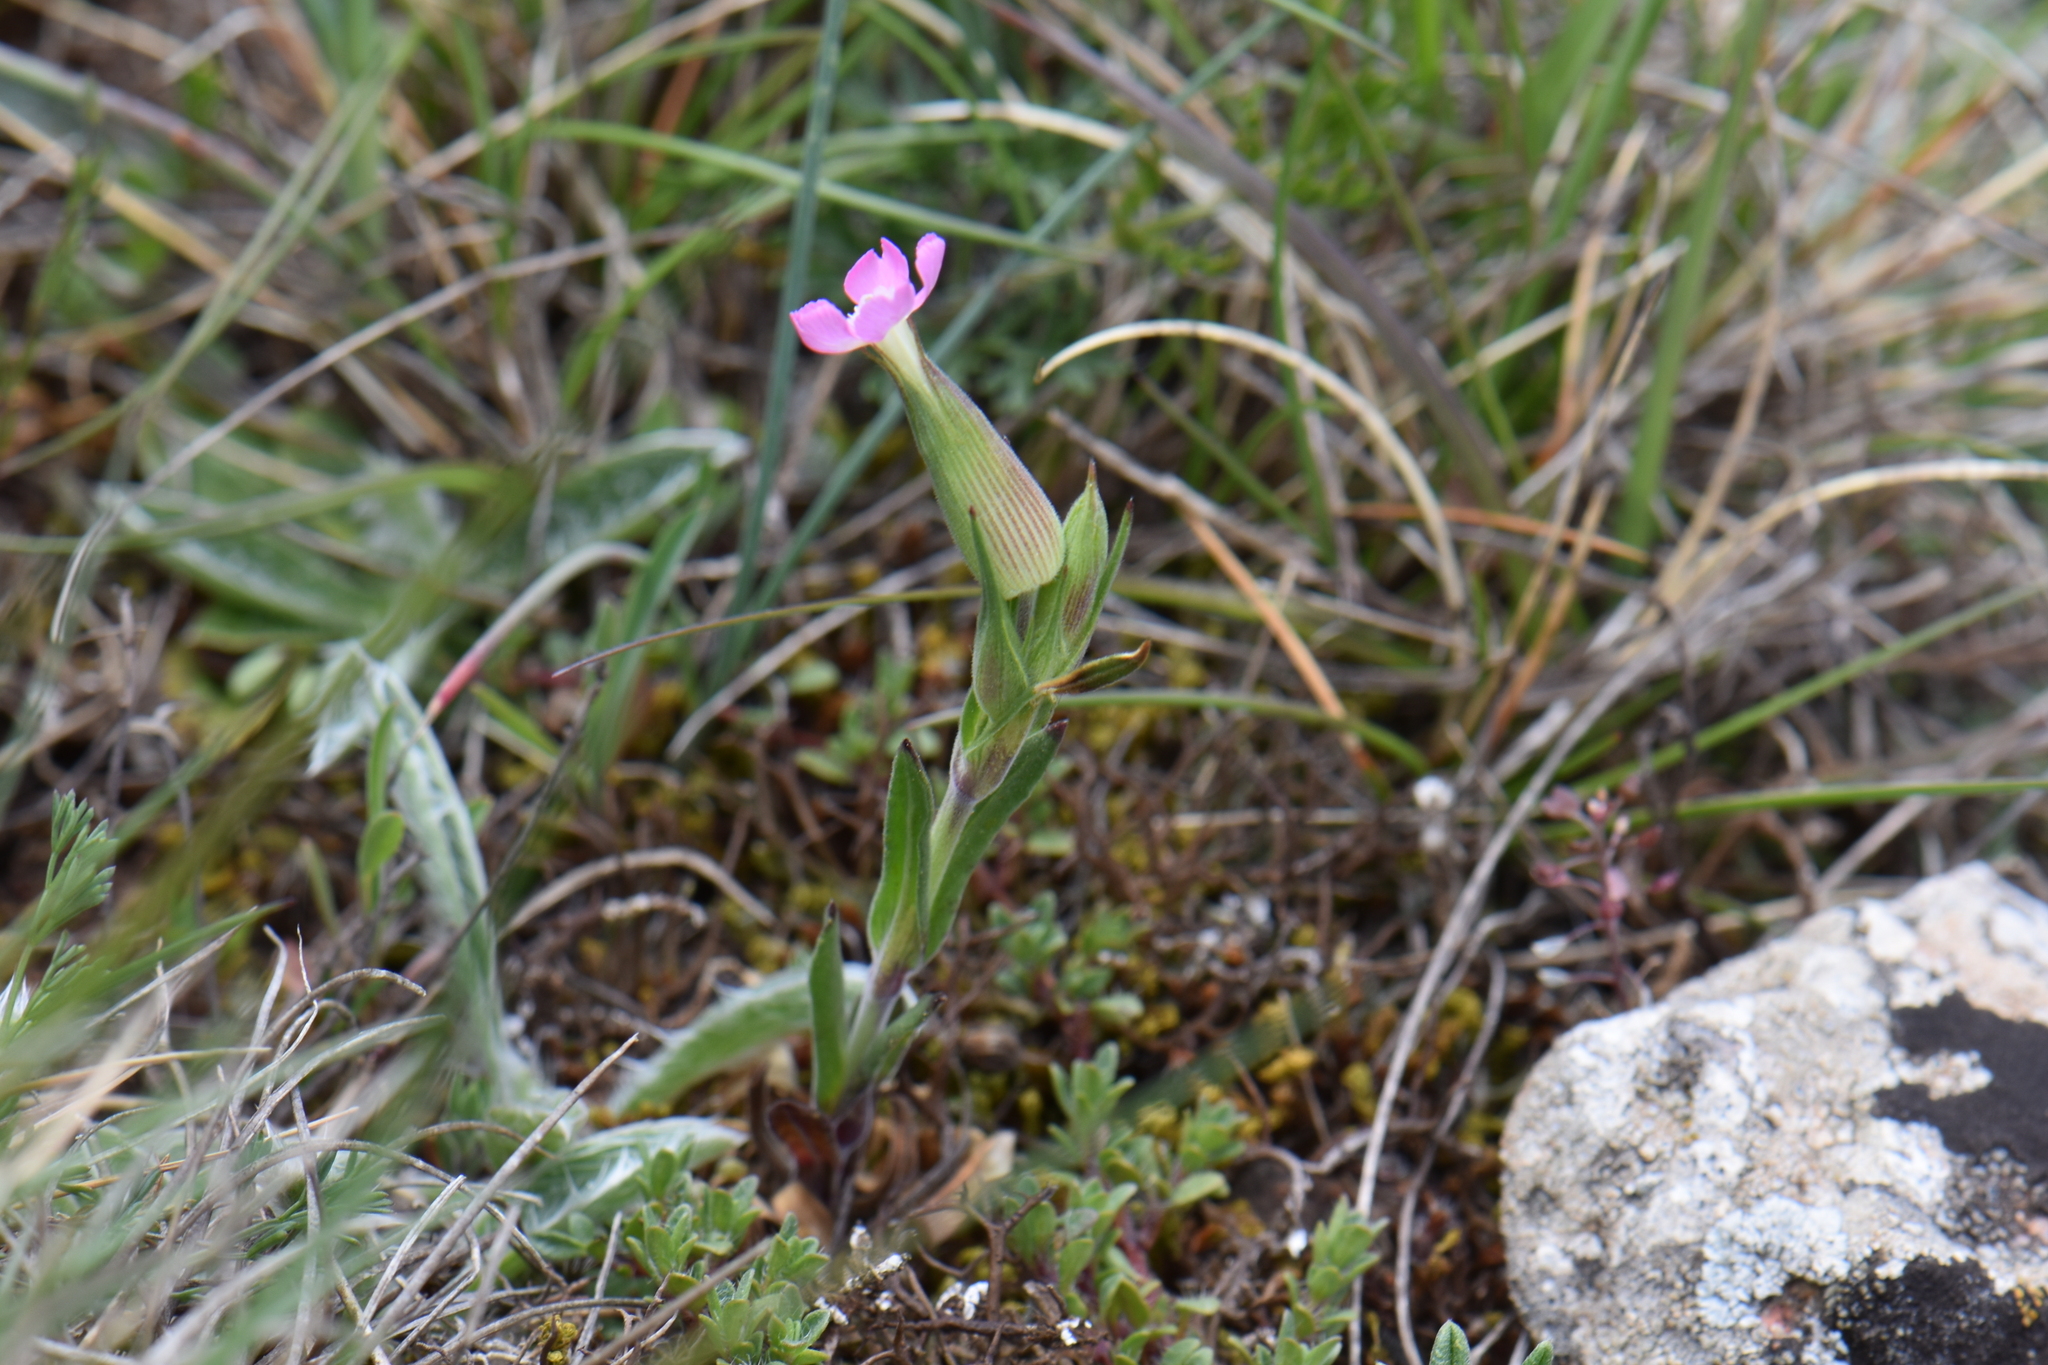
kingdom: Plantae
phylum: Tracheophyta
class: Magnoliopsida
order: Caryophyllales
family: Caryophyllaceae
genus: Silene
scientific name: Silene conica
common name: Sand catchfly
